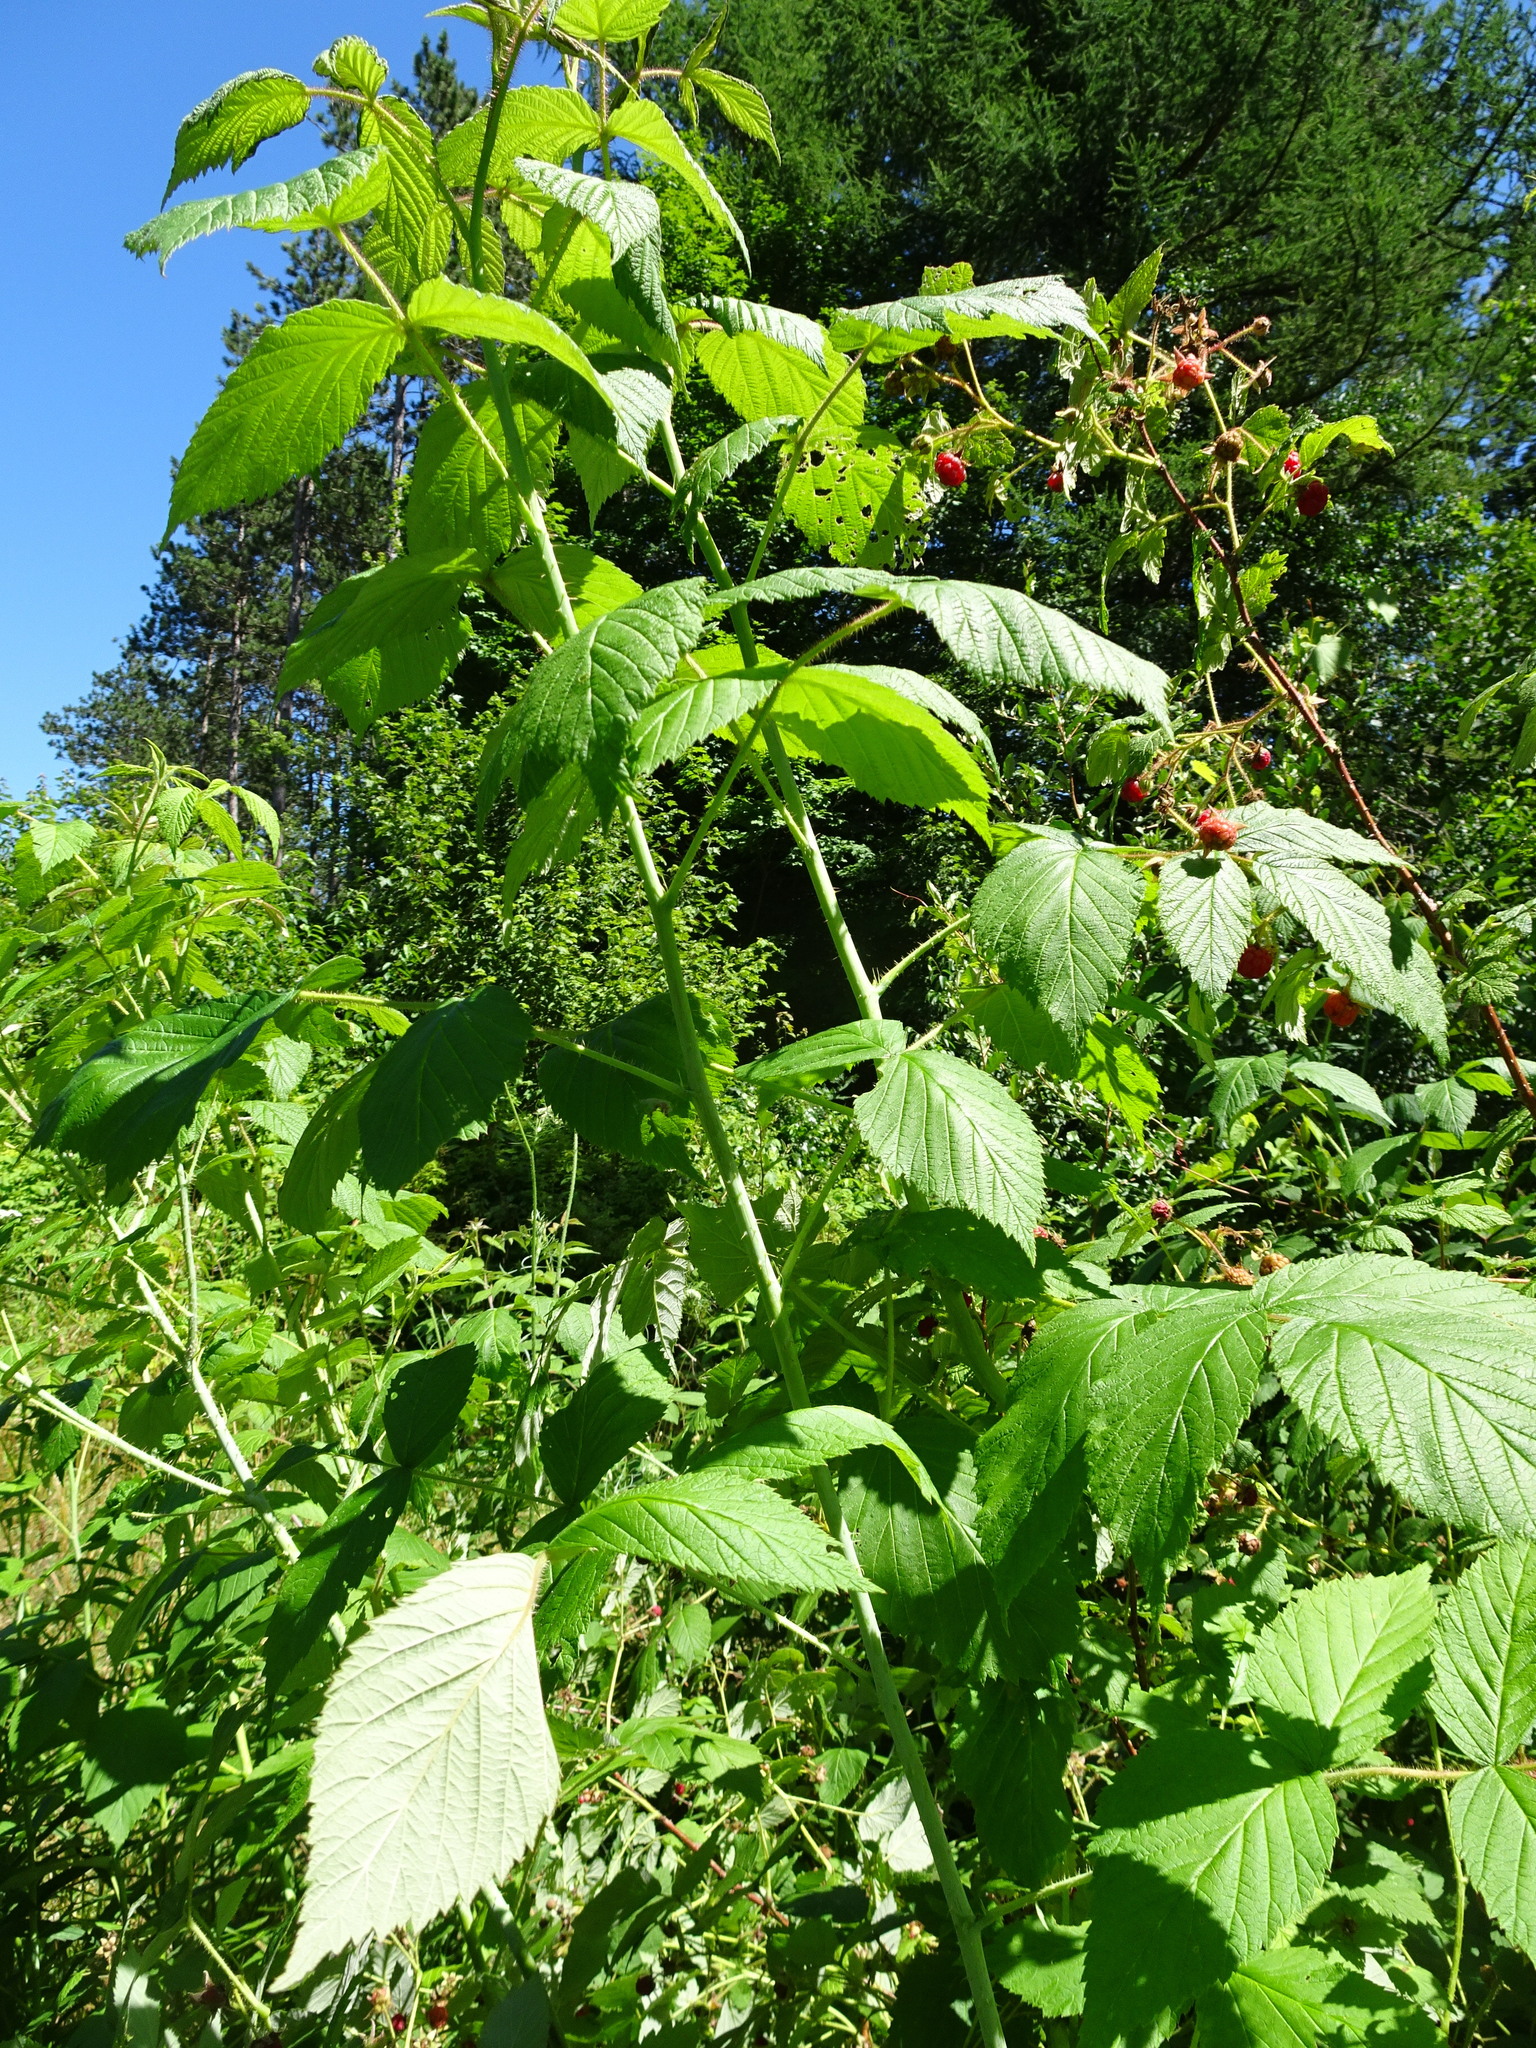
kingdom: Plantae
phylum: Tracheophyta
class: Magnoliopsida
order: Rosales
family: Rosaceae
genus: Rubus
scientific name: Rubus idaeus
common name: Raspberry
